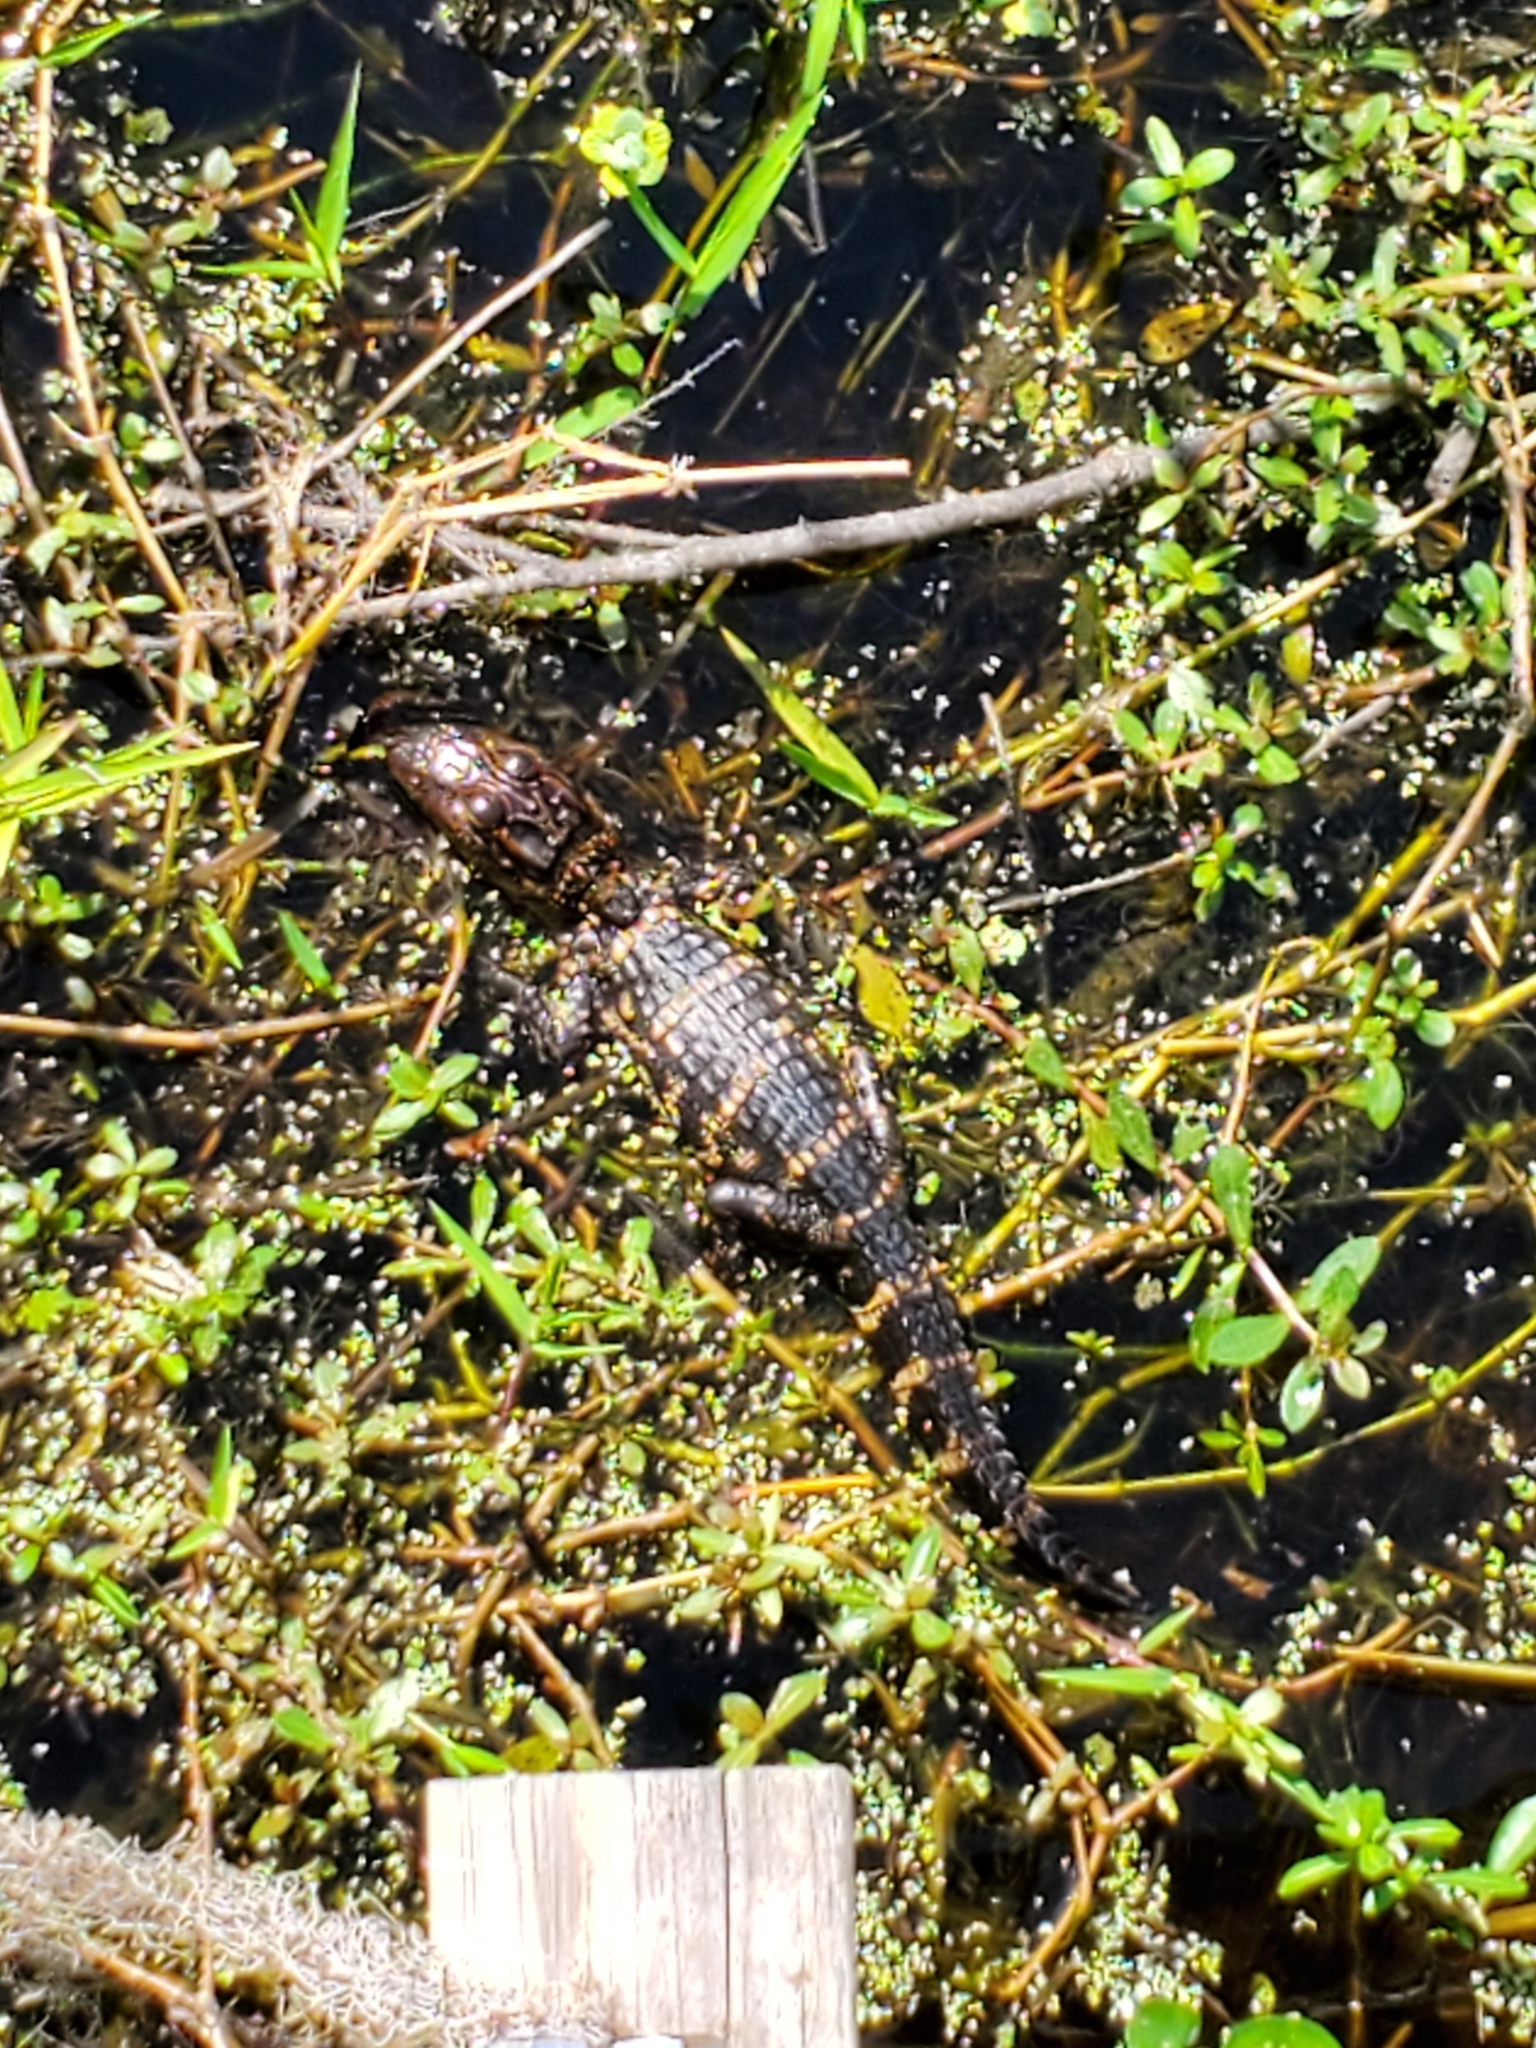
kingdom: Animalia
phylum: Chordata
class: Crocodylia
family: Alligatoridae
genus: Alligator
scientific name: Alligator mississippiensis
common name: American alligator
